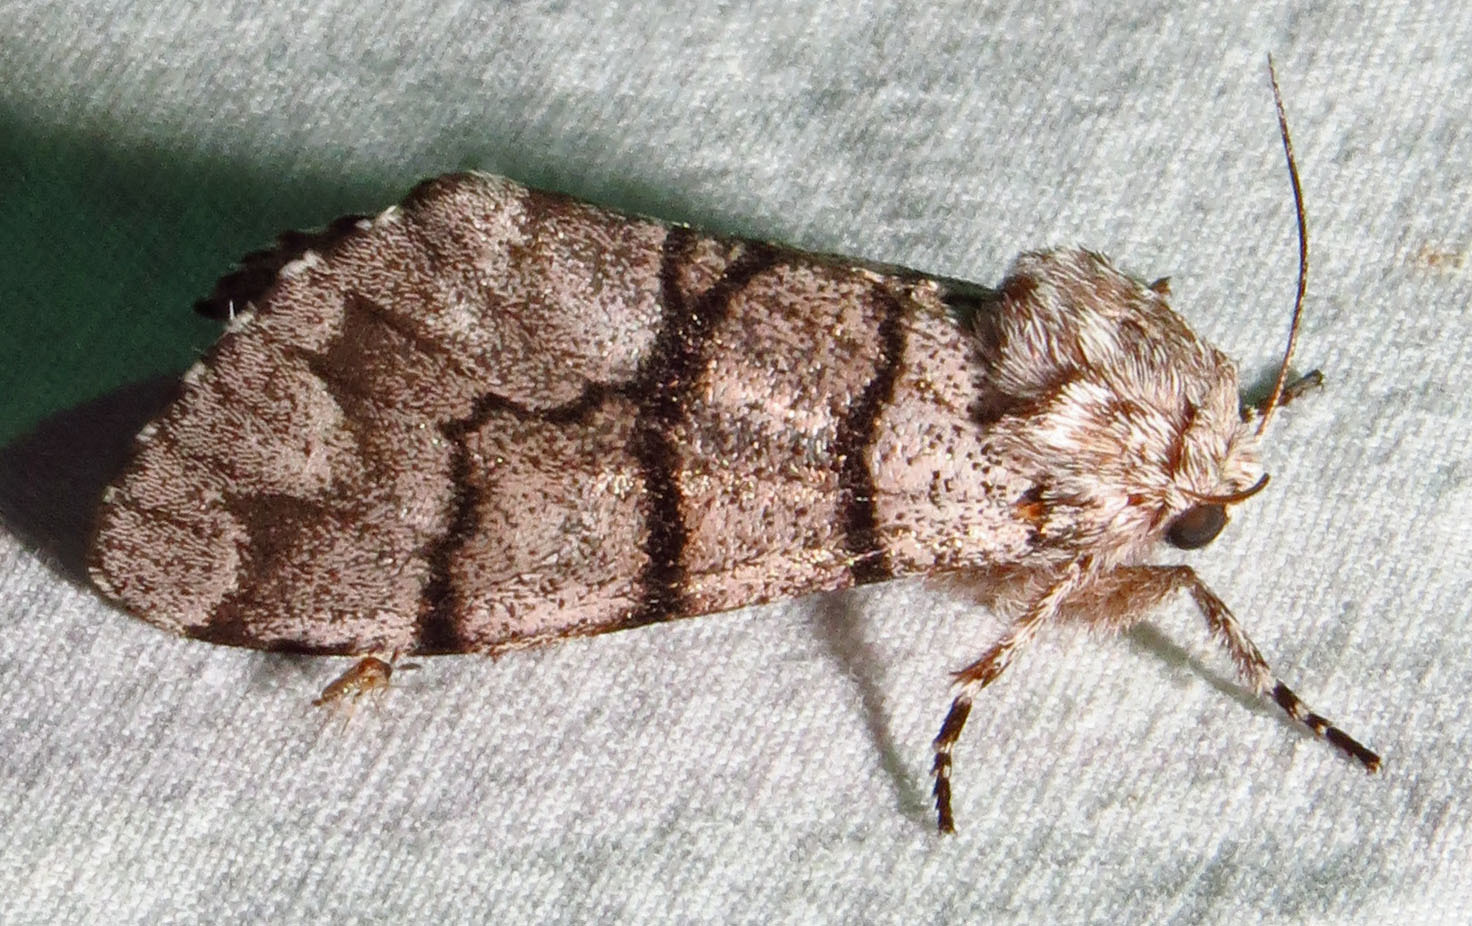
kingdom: Animalia
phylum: Arthropoda
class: Insecta
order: Lepidoptera
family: Noctuidae
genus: Panthea
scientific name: Panthea furcilla
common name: Eastern panthea moth
